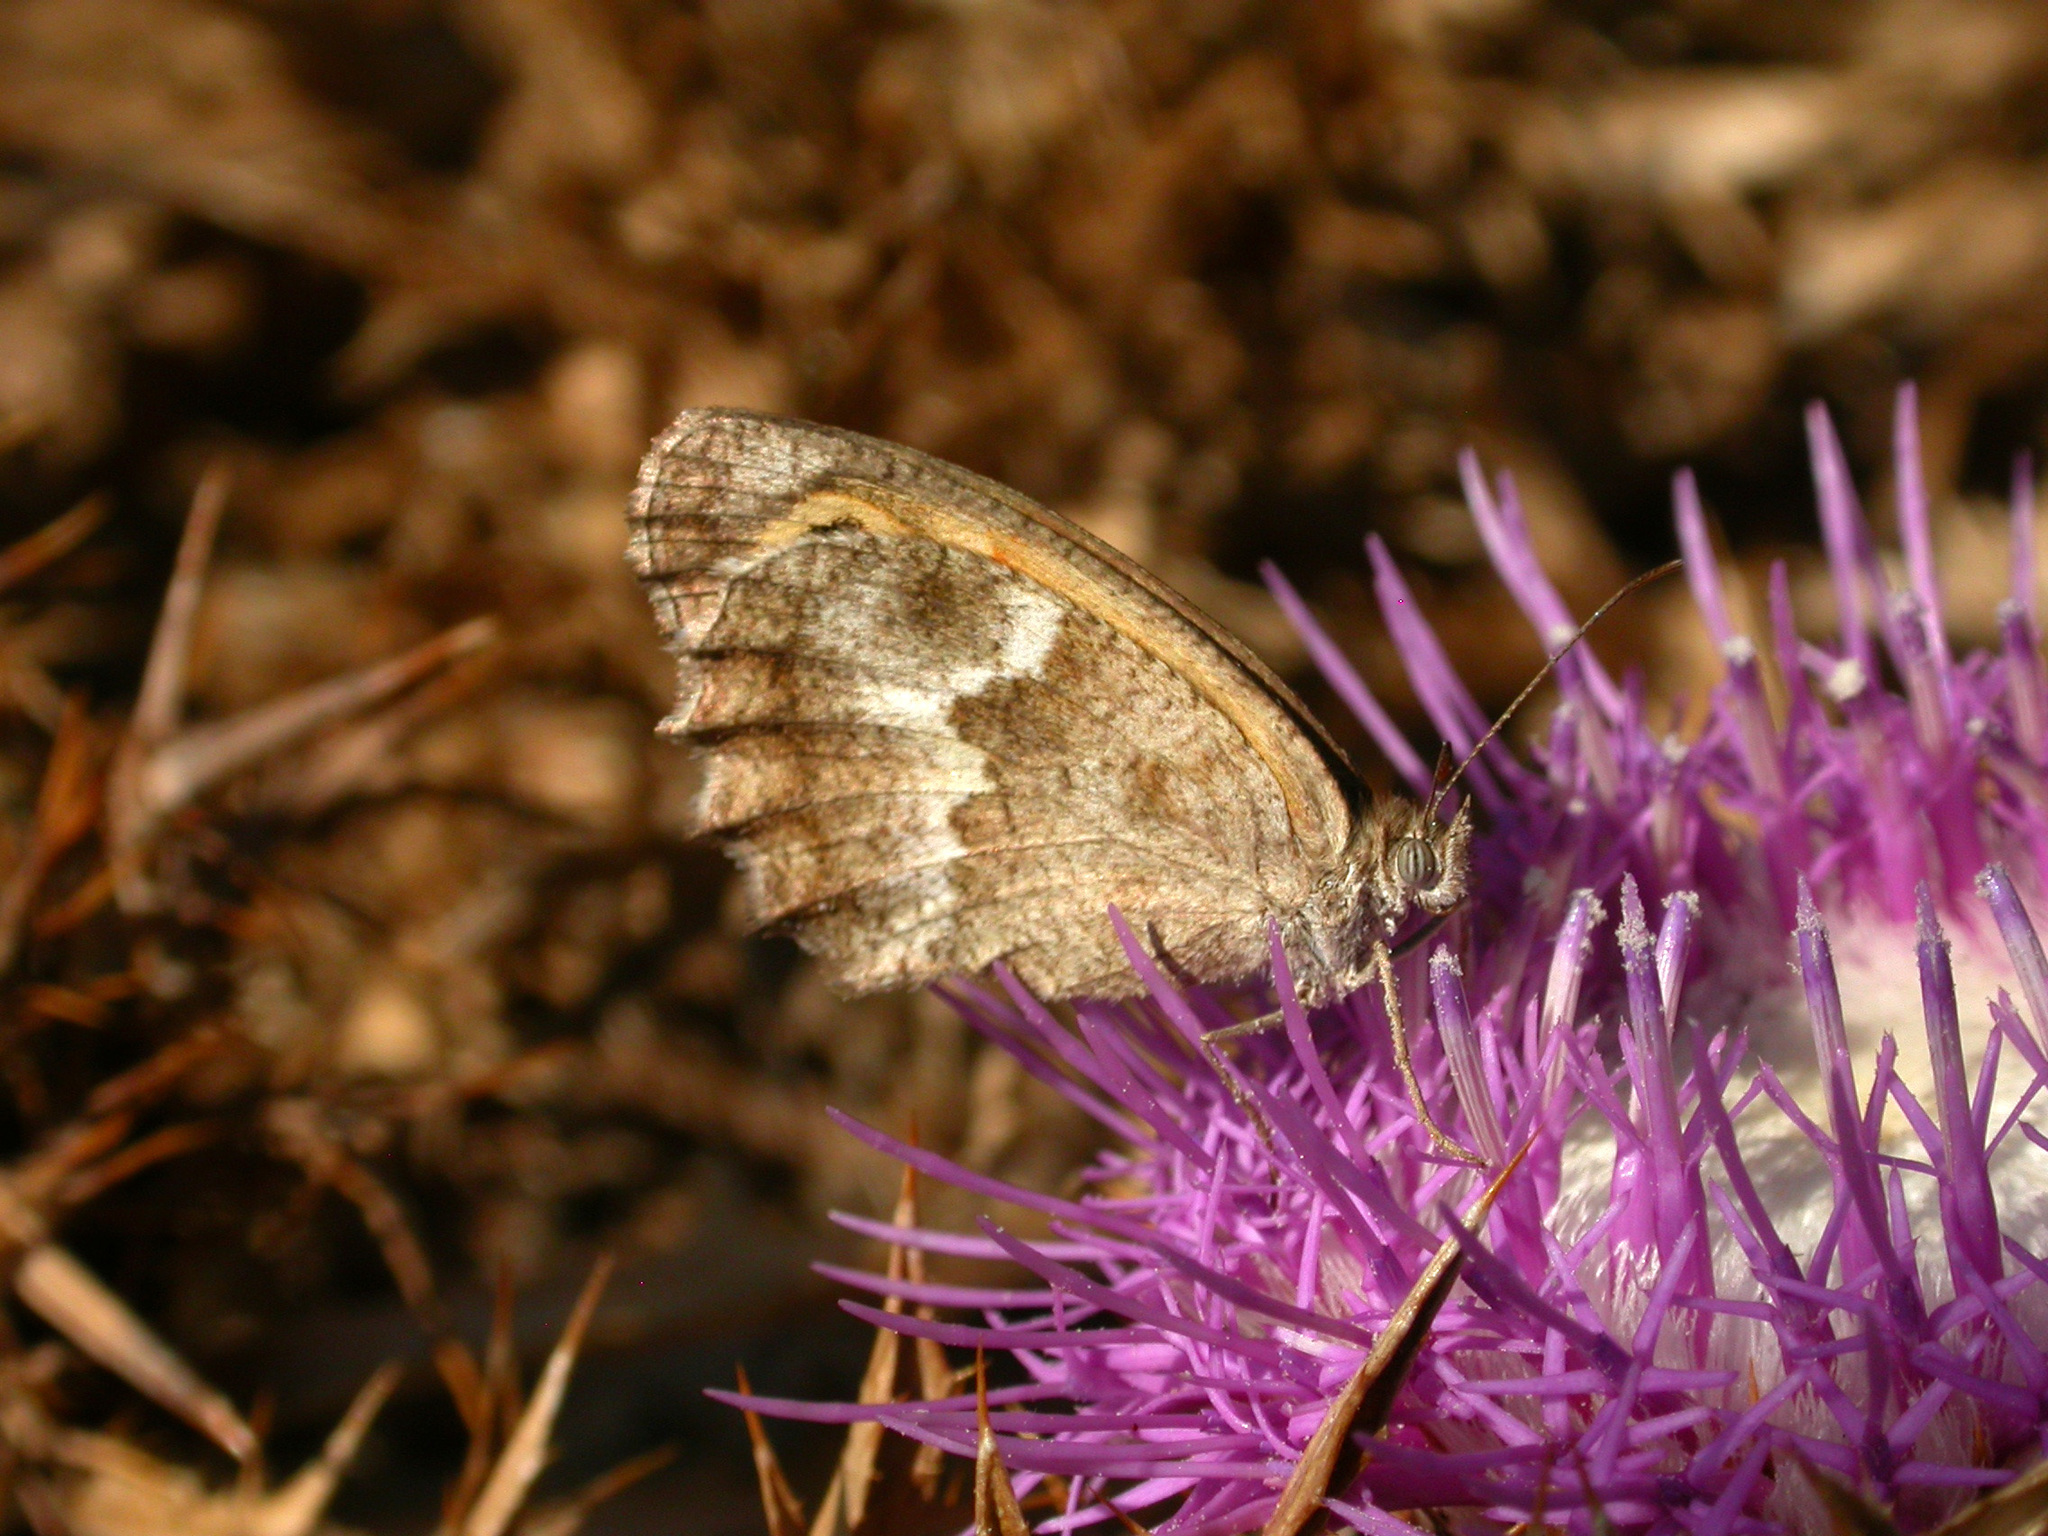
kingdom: Animalia
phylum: Arthropoda
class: Insecta
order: Lepidoptera
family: Nymphalidae
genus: Pyronia
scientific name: Pyronia cecilia
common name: Southern gatekeeper
